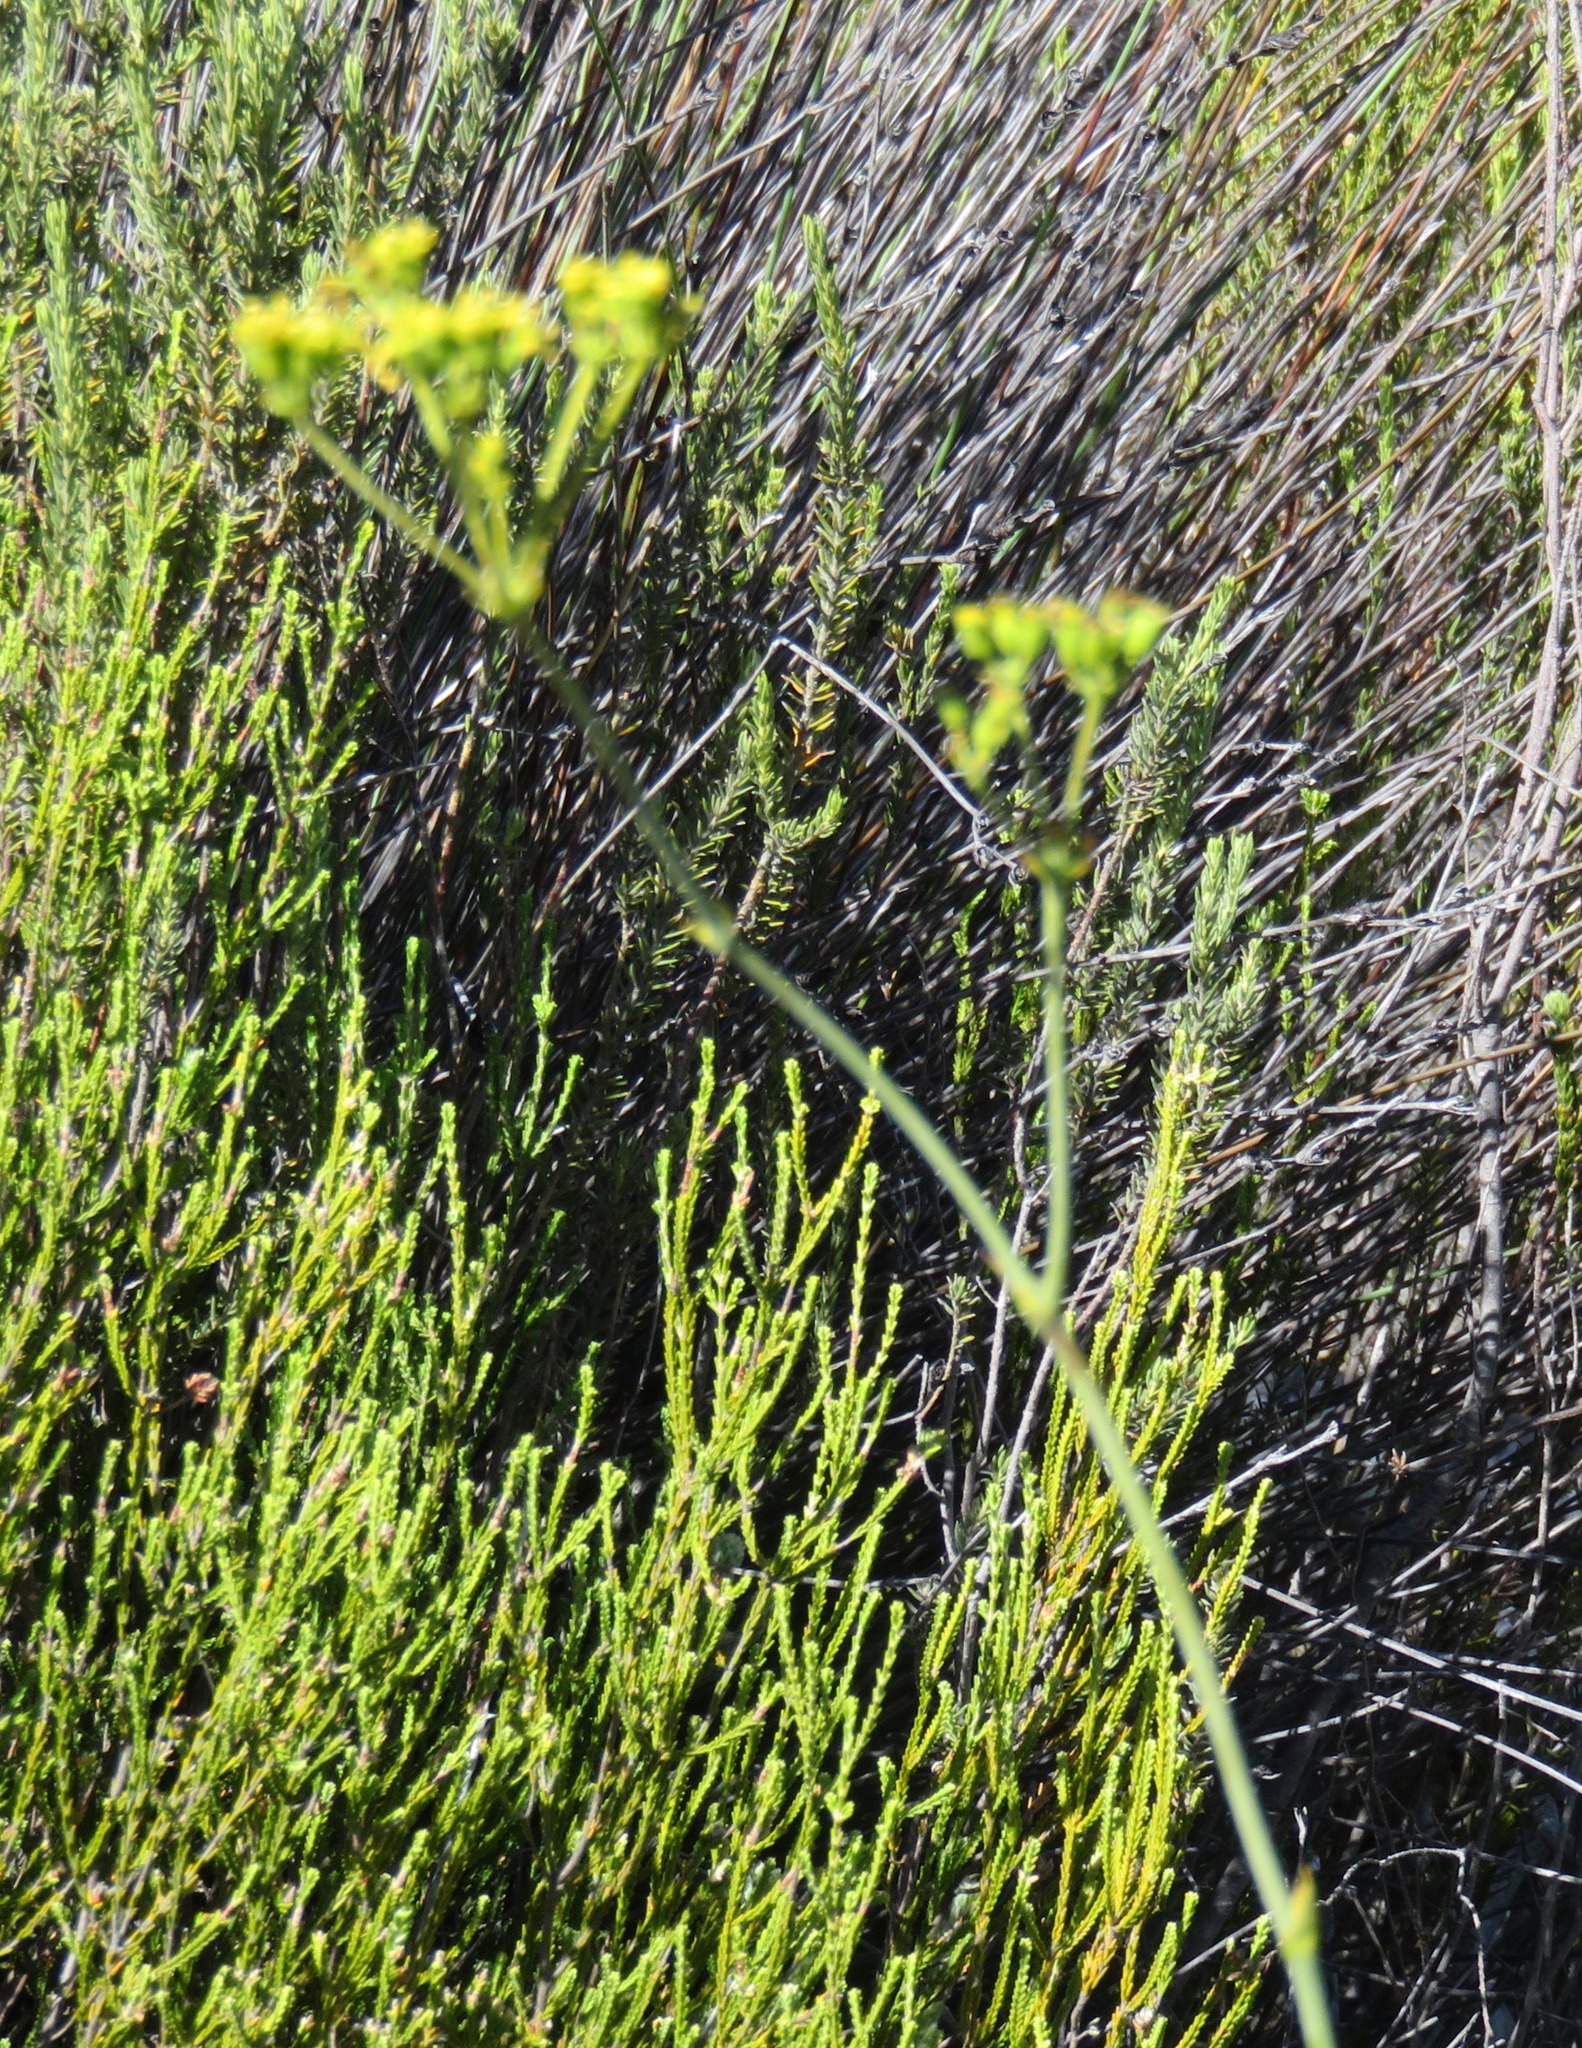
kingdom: Plantae
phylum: Tracheophyta
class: Magnoliopsida
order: Apiales
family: Apiaceae
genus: Lichtensteinia
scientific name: Lichtensteinia trifida
